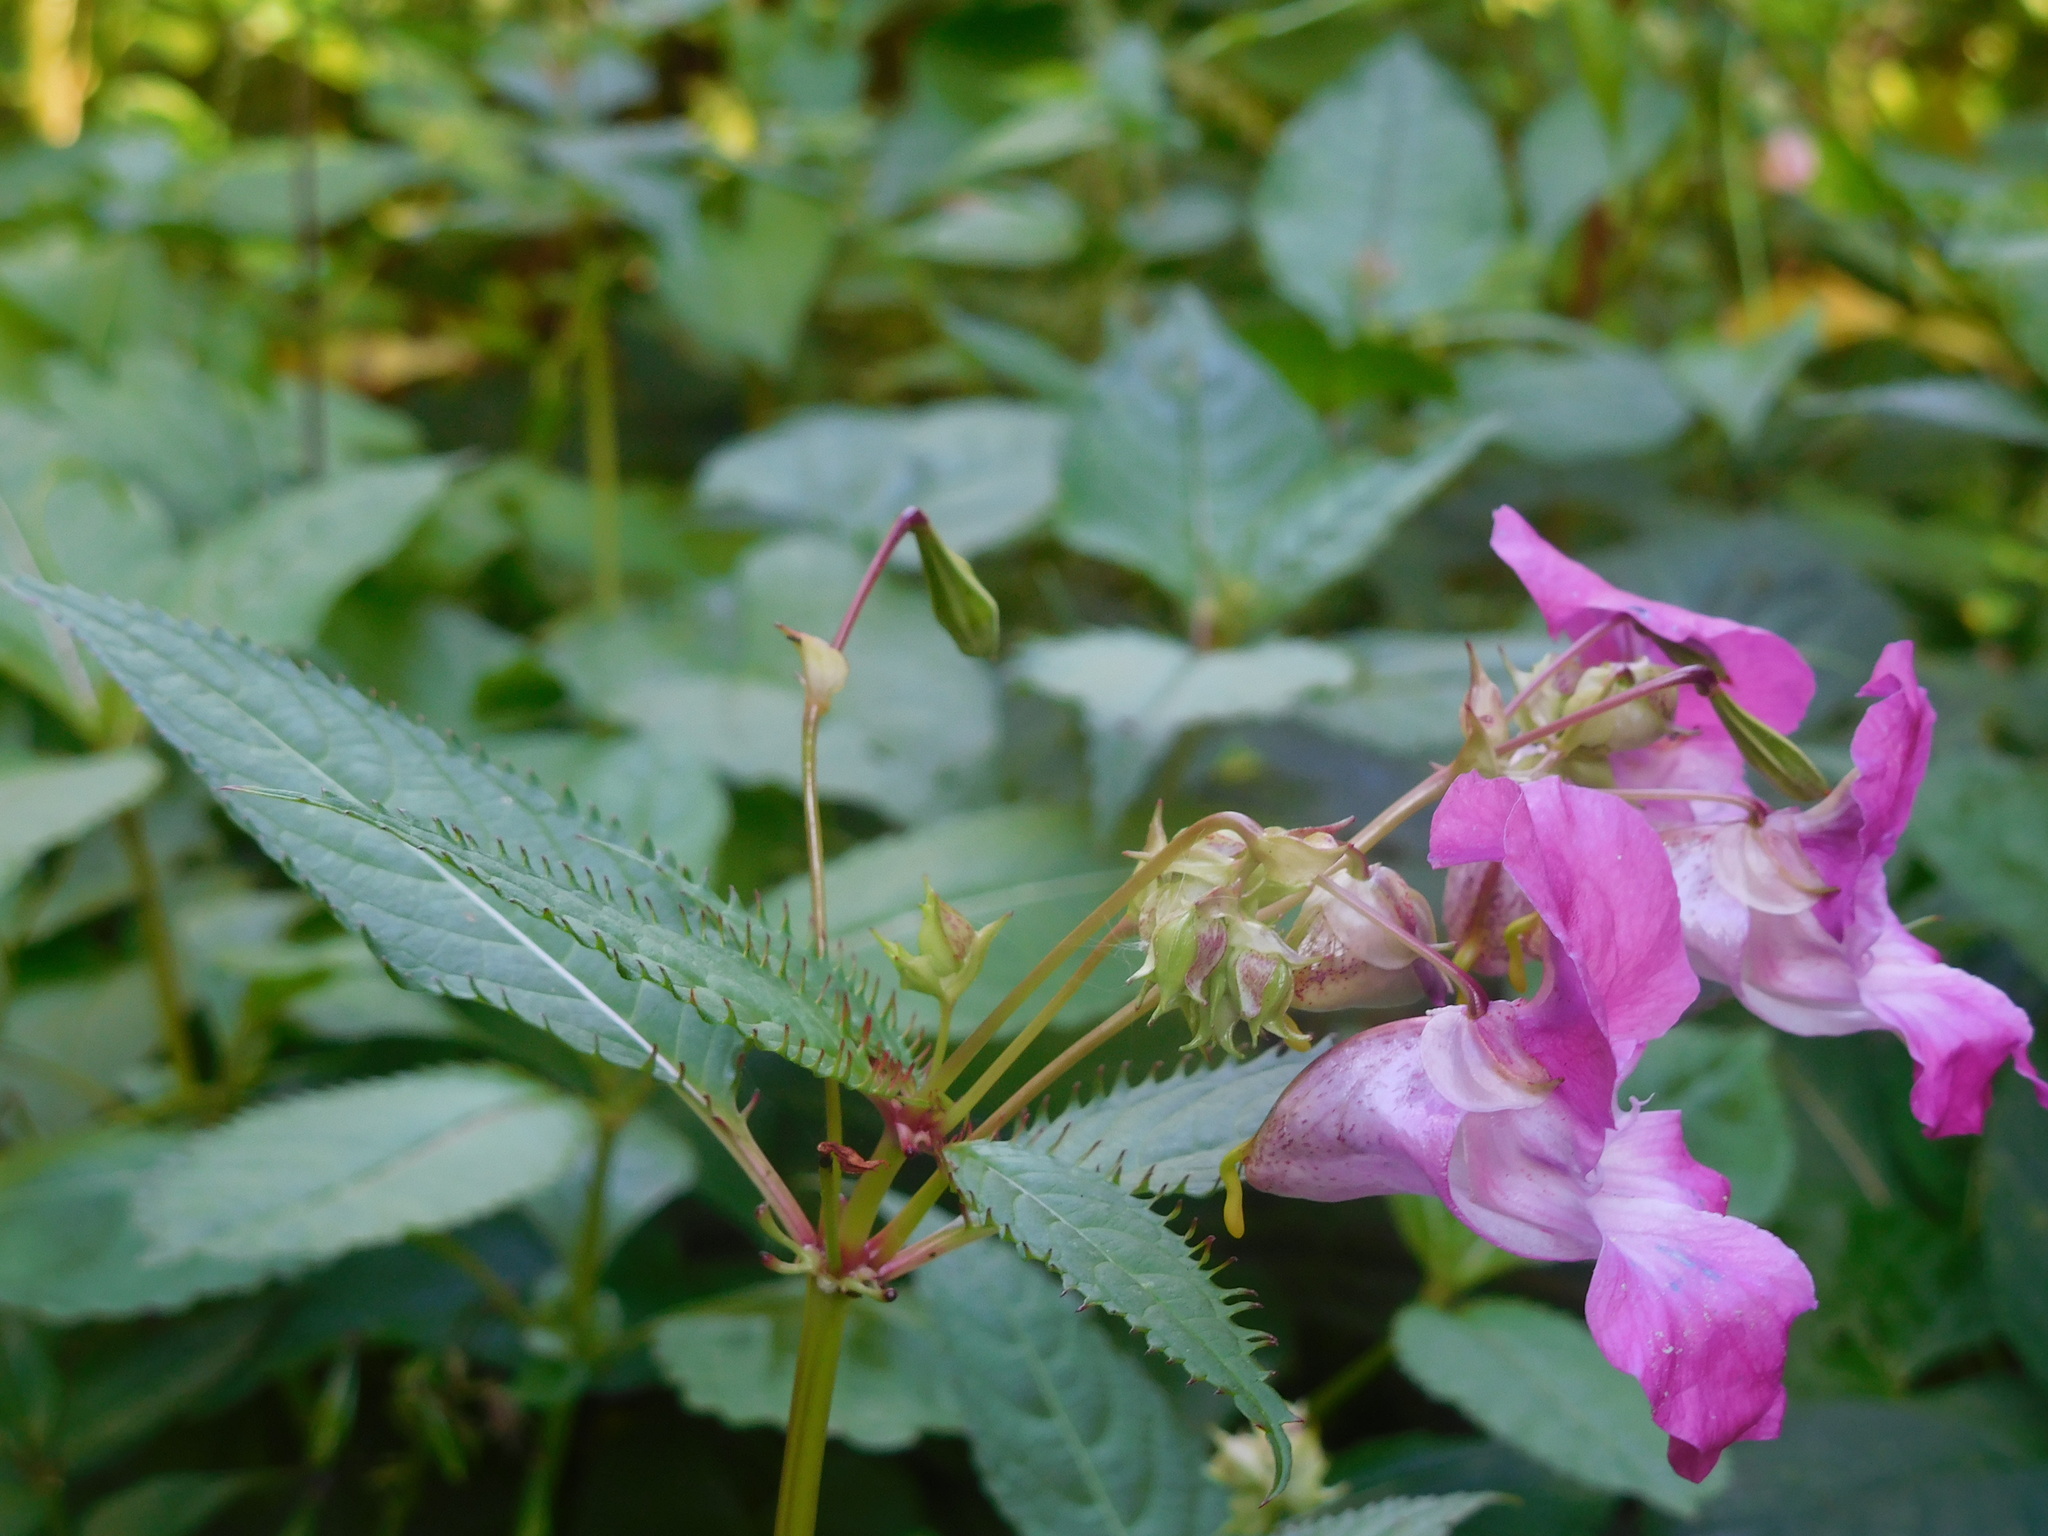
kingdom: Plantae
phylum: Tracheophyta
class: Magnoliopsida
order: Ericales
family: Balsaminaceae
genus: Impatiens
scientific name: Impatiens glandulifera
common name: Himalayan balsam
